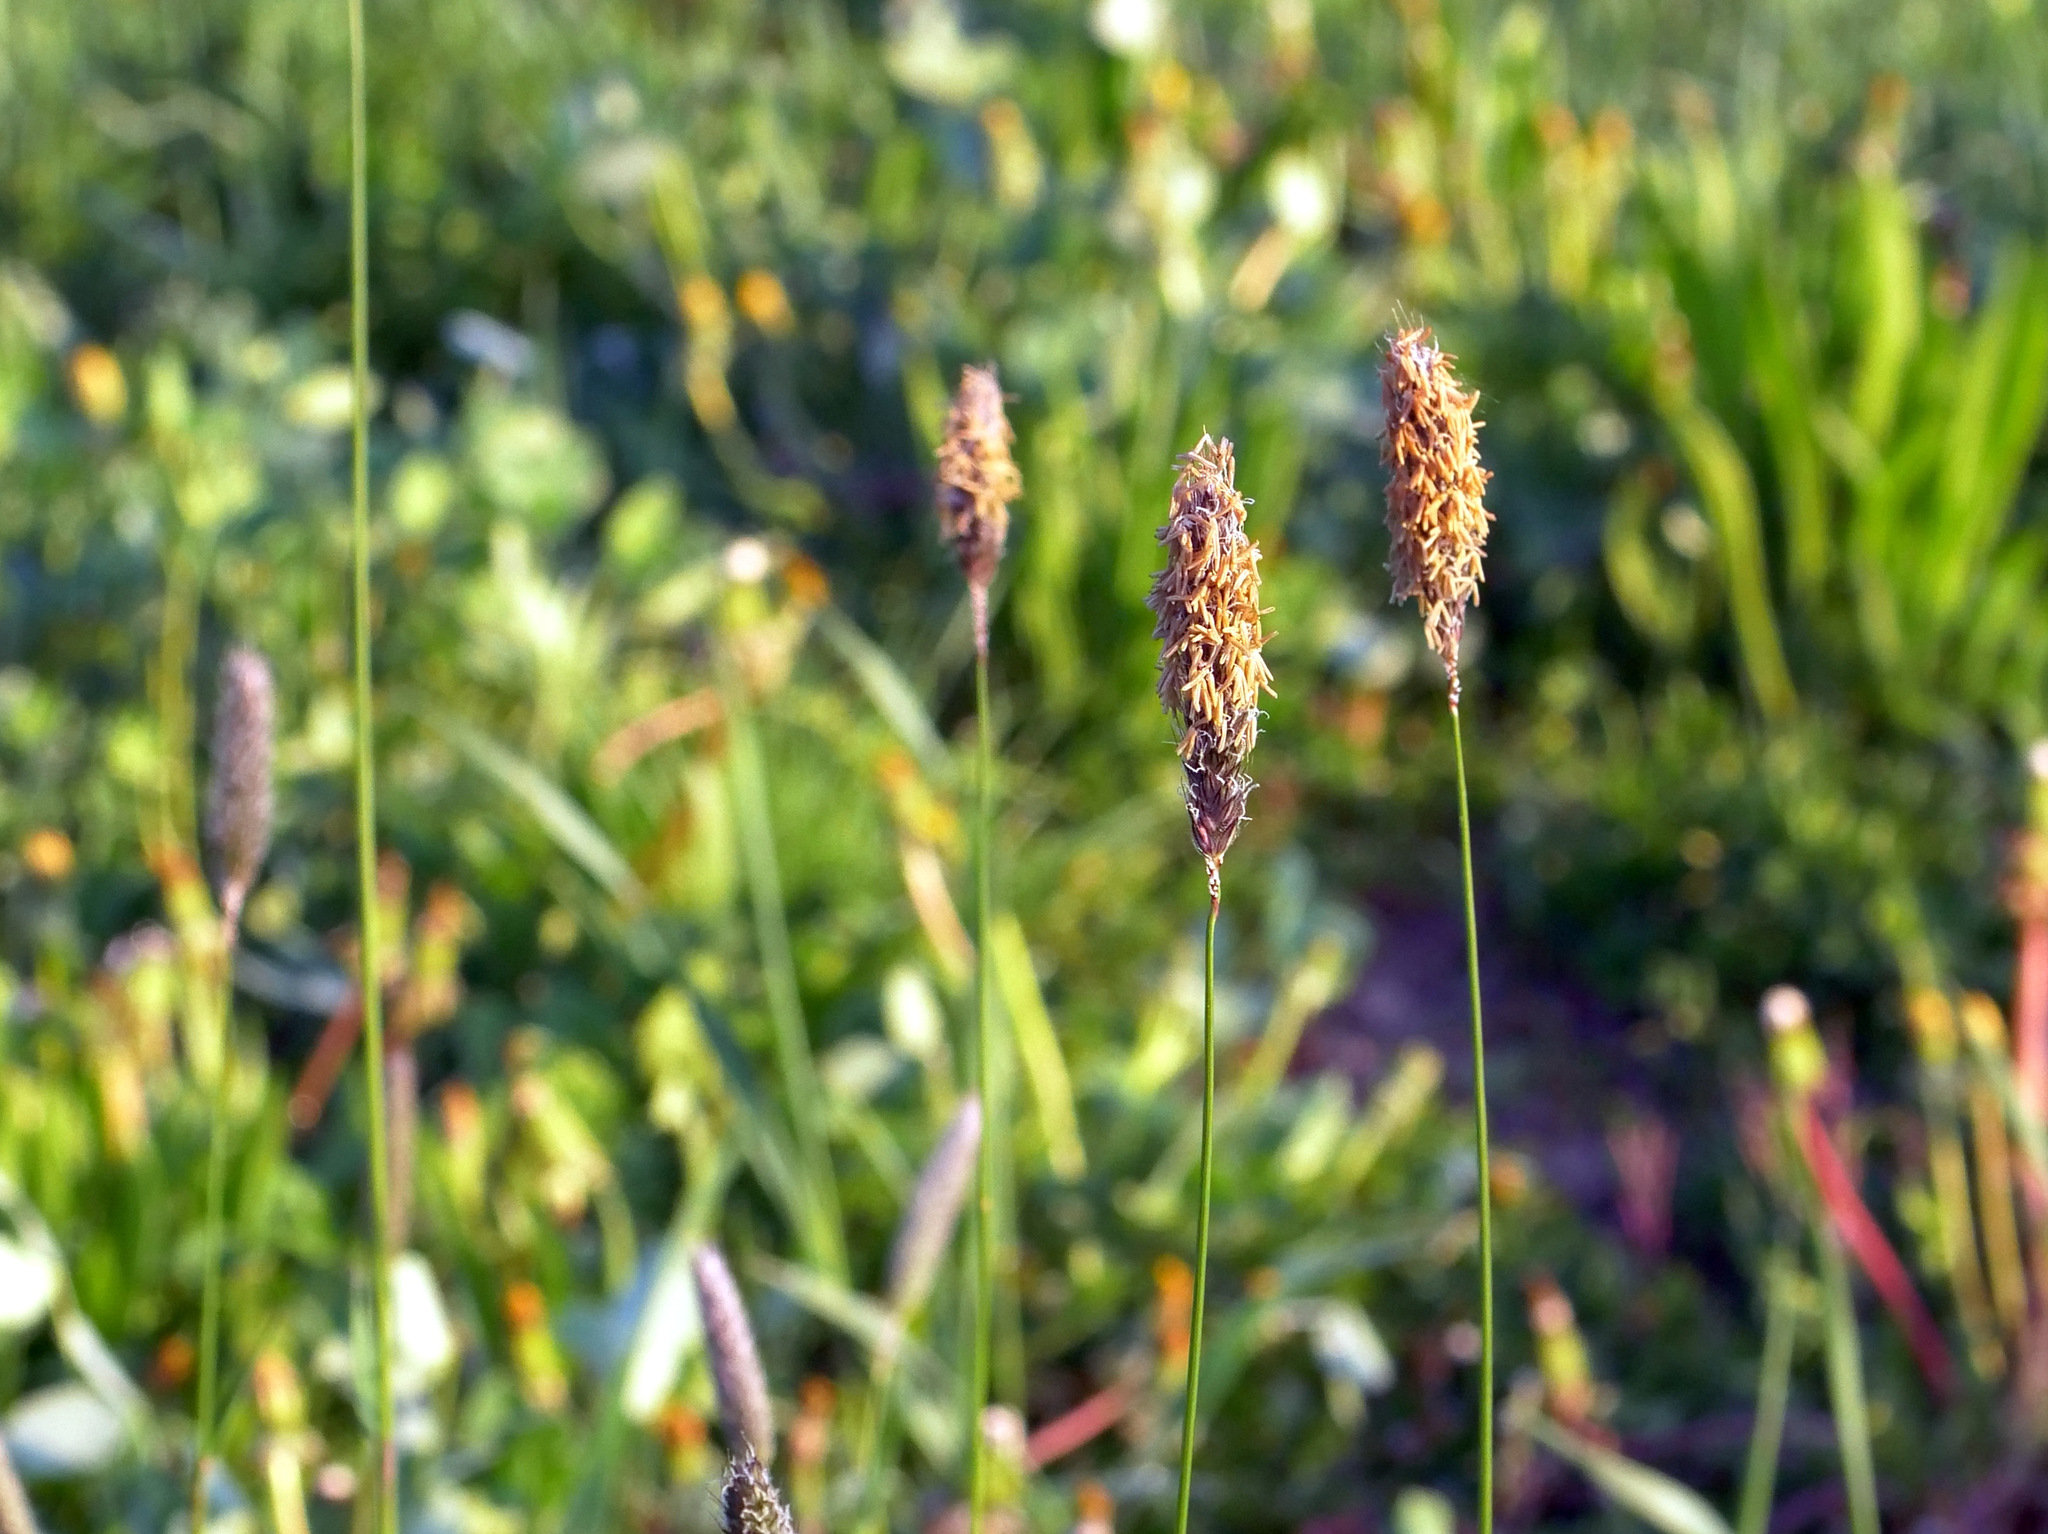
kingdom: Plantae
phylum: Tracheophyta
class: Liliopsida
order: Poales
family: Poaceae
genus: Alopecurus
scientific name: Alopecurus pratensis
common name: Meadow foxtail
